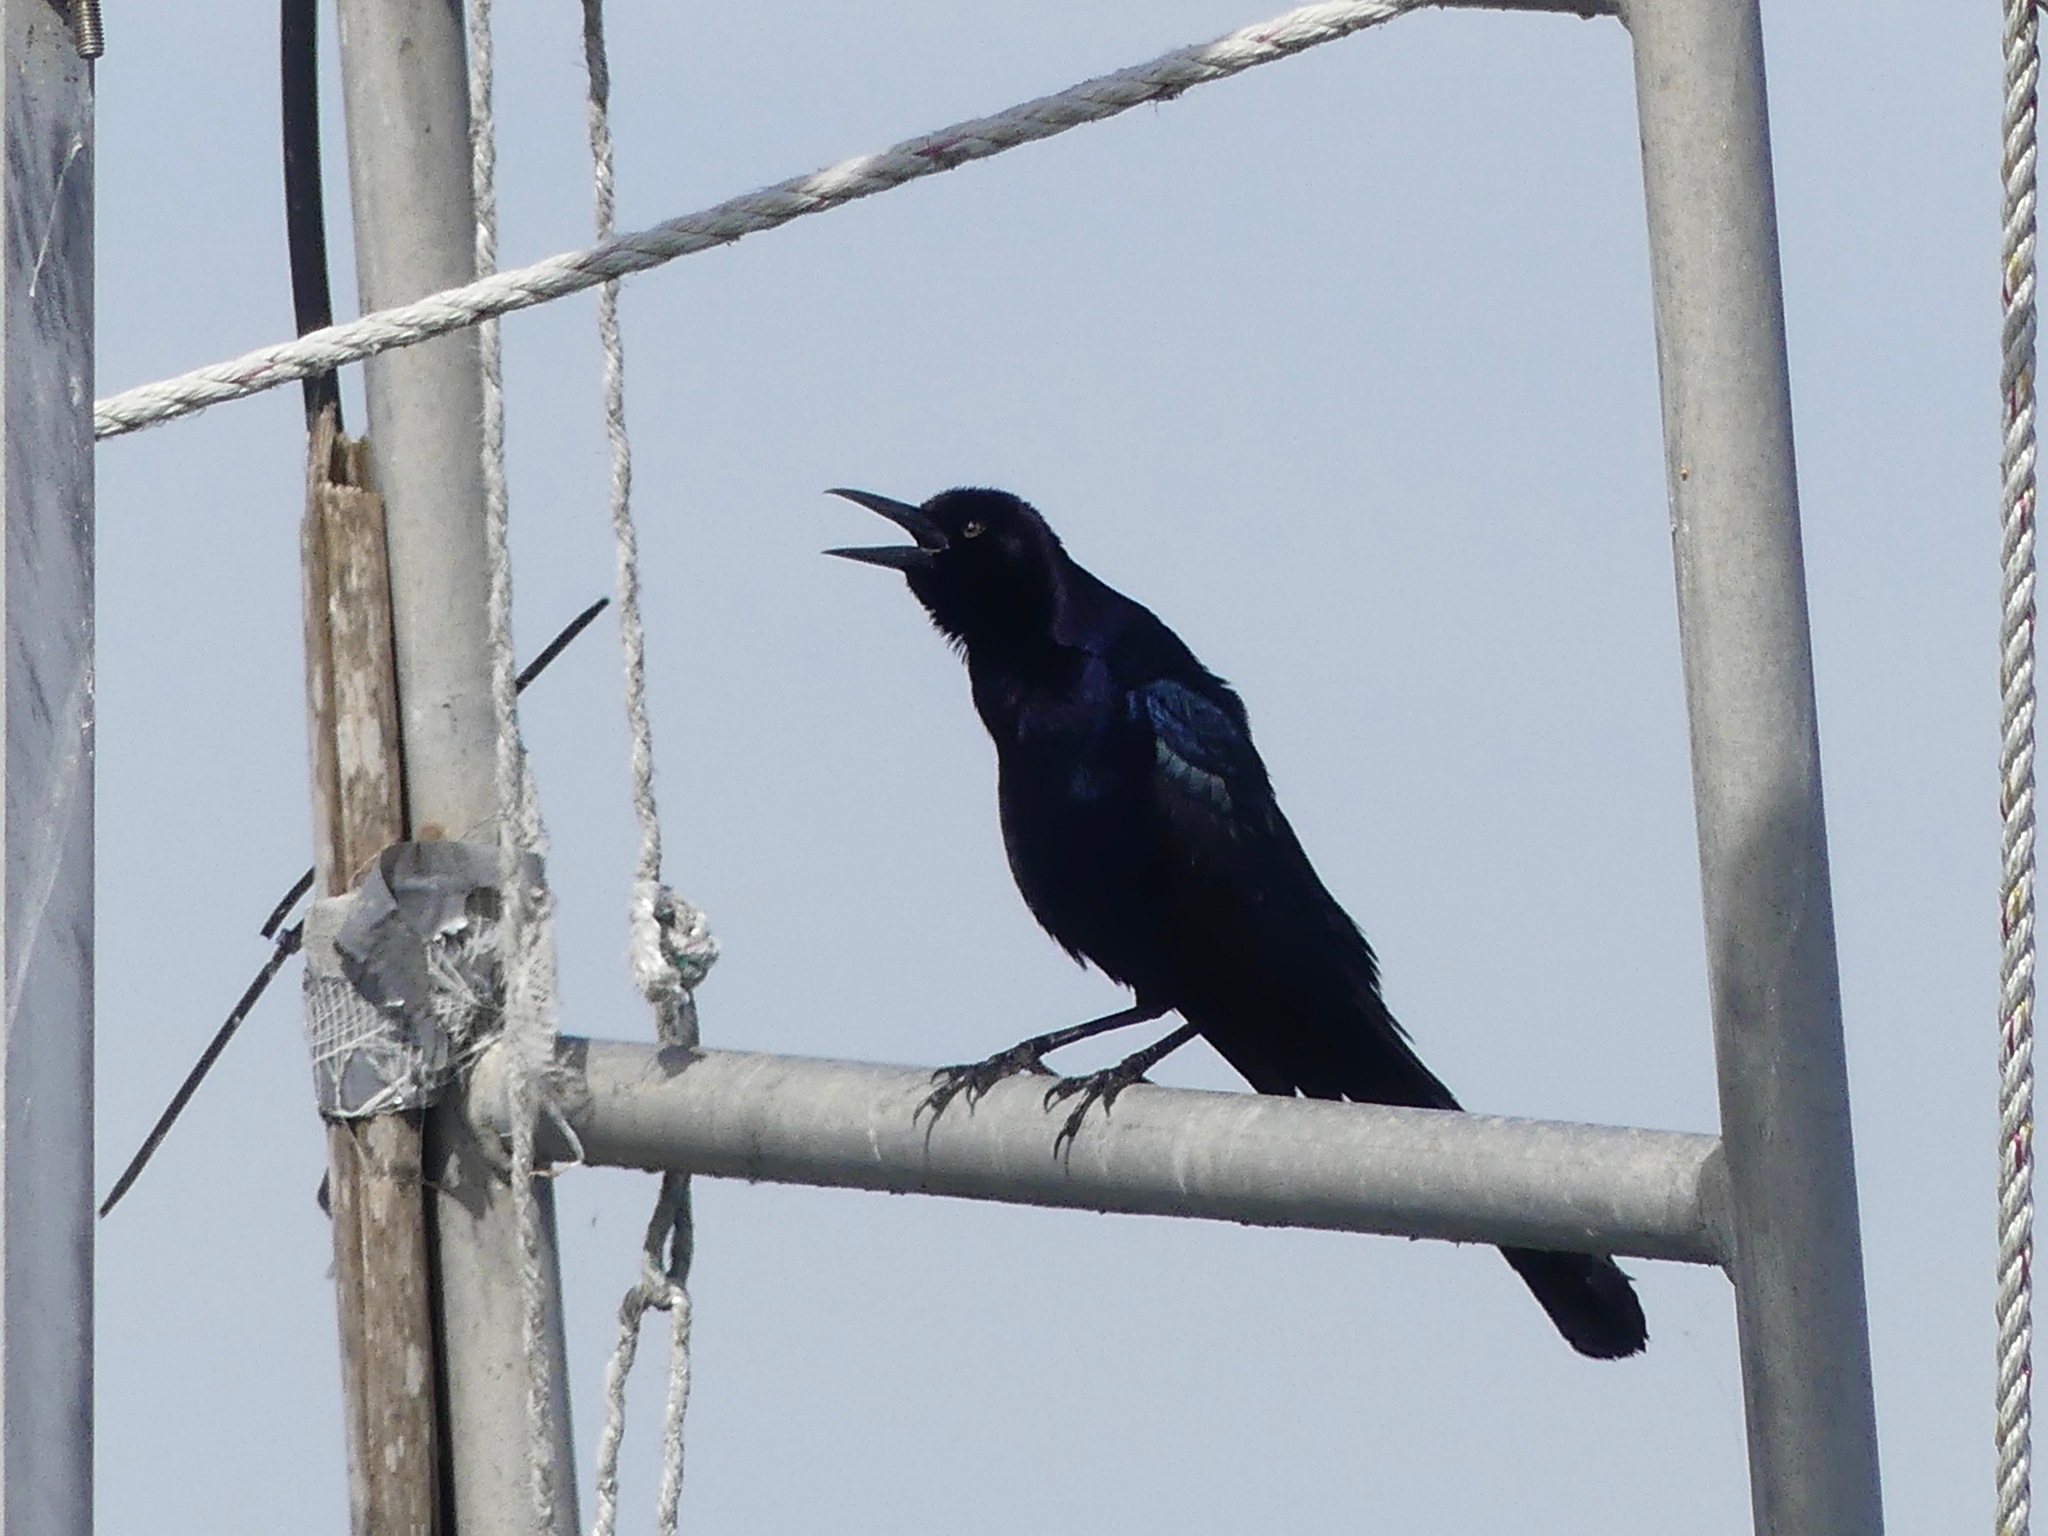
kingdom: Animalia
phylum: Chordata
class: Aves
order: Passeriformes
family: Icteridae
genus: Quiscalus
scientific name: Quiscalus major
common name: Boat-tailed grackle
